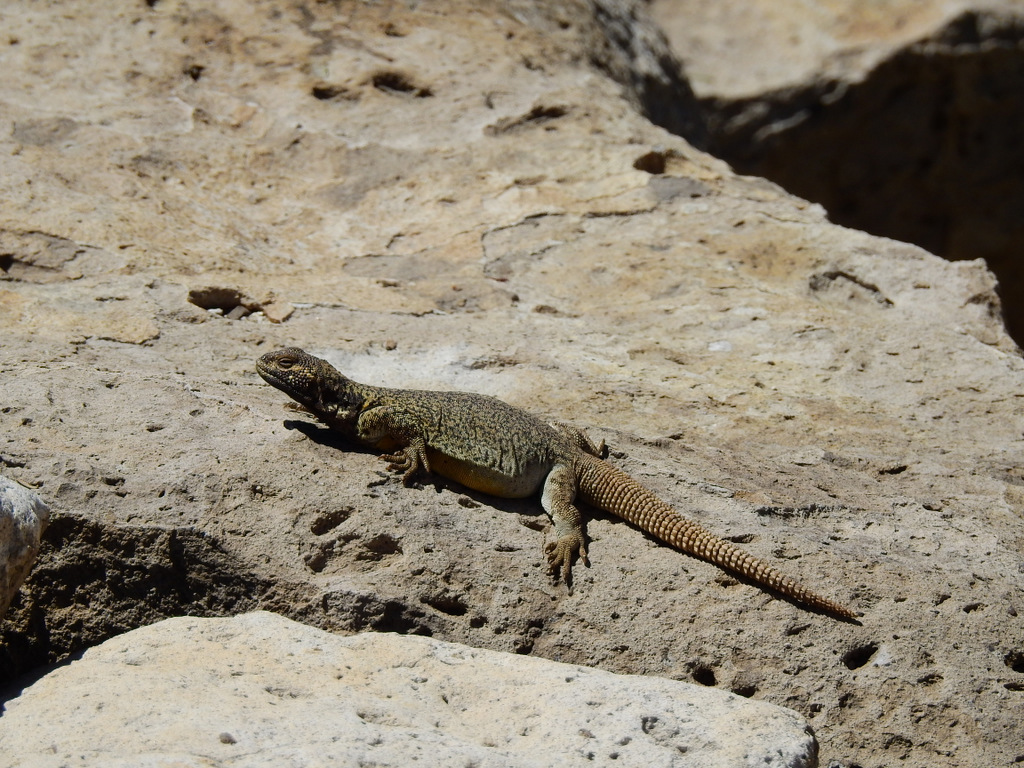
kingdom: Animalia
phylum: Chordata
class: Squamata
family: Liolaemidae
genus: Phymaturus
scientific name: Phymaturus verdugo
